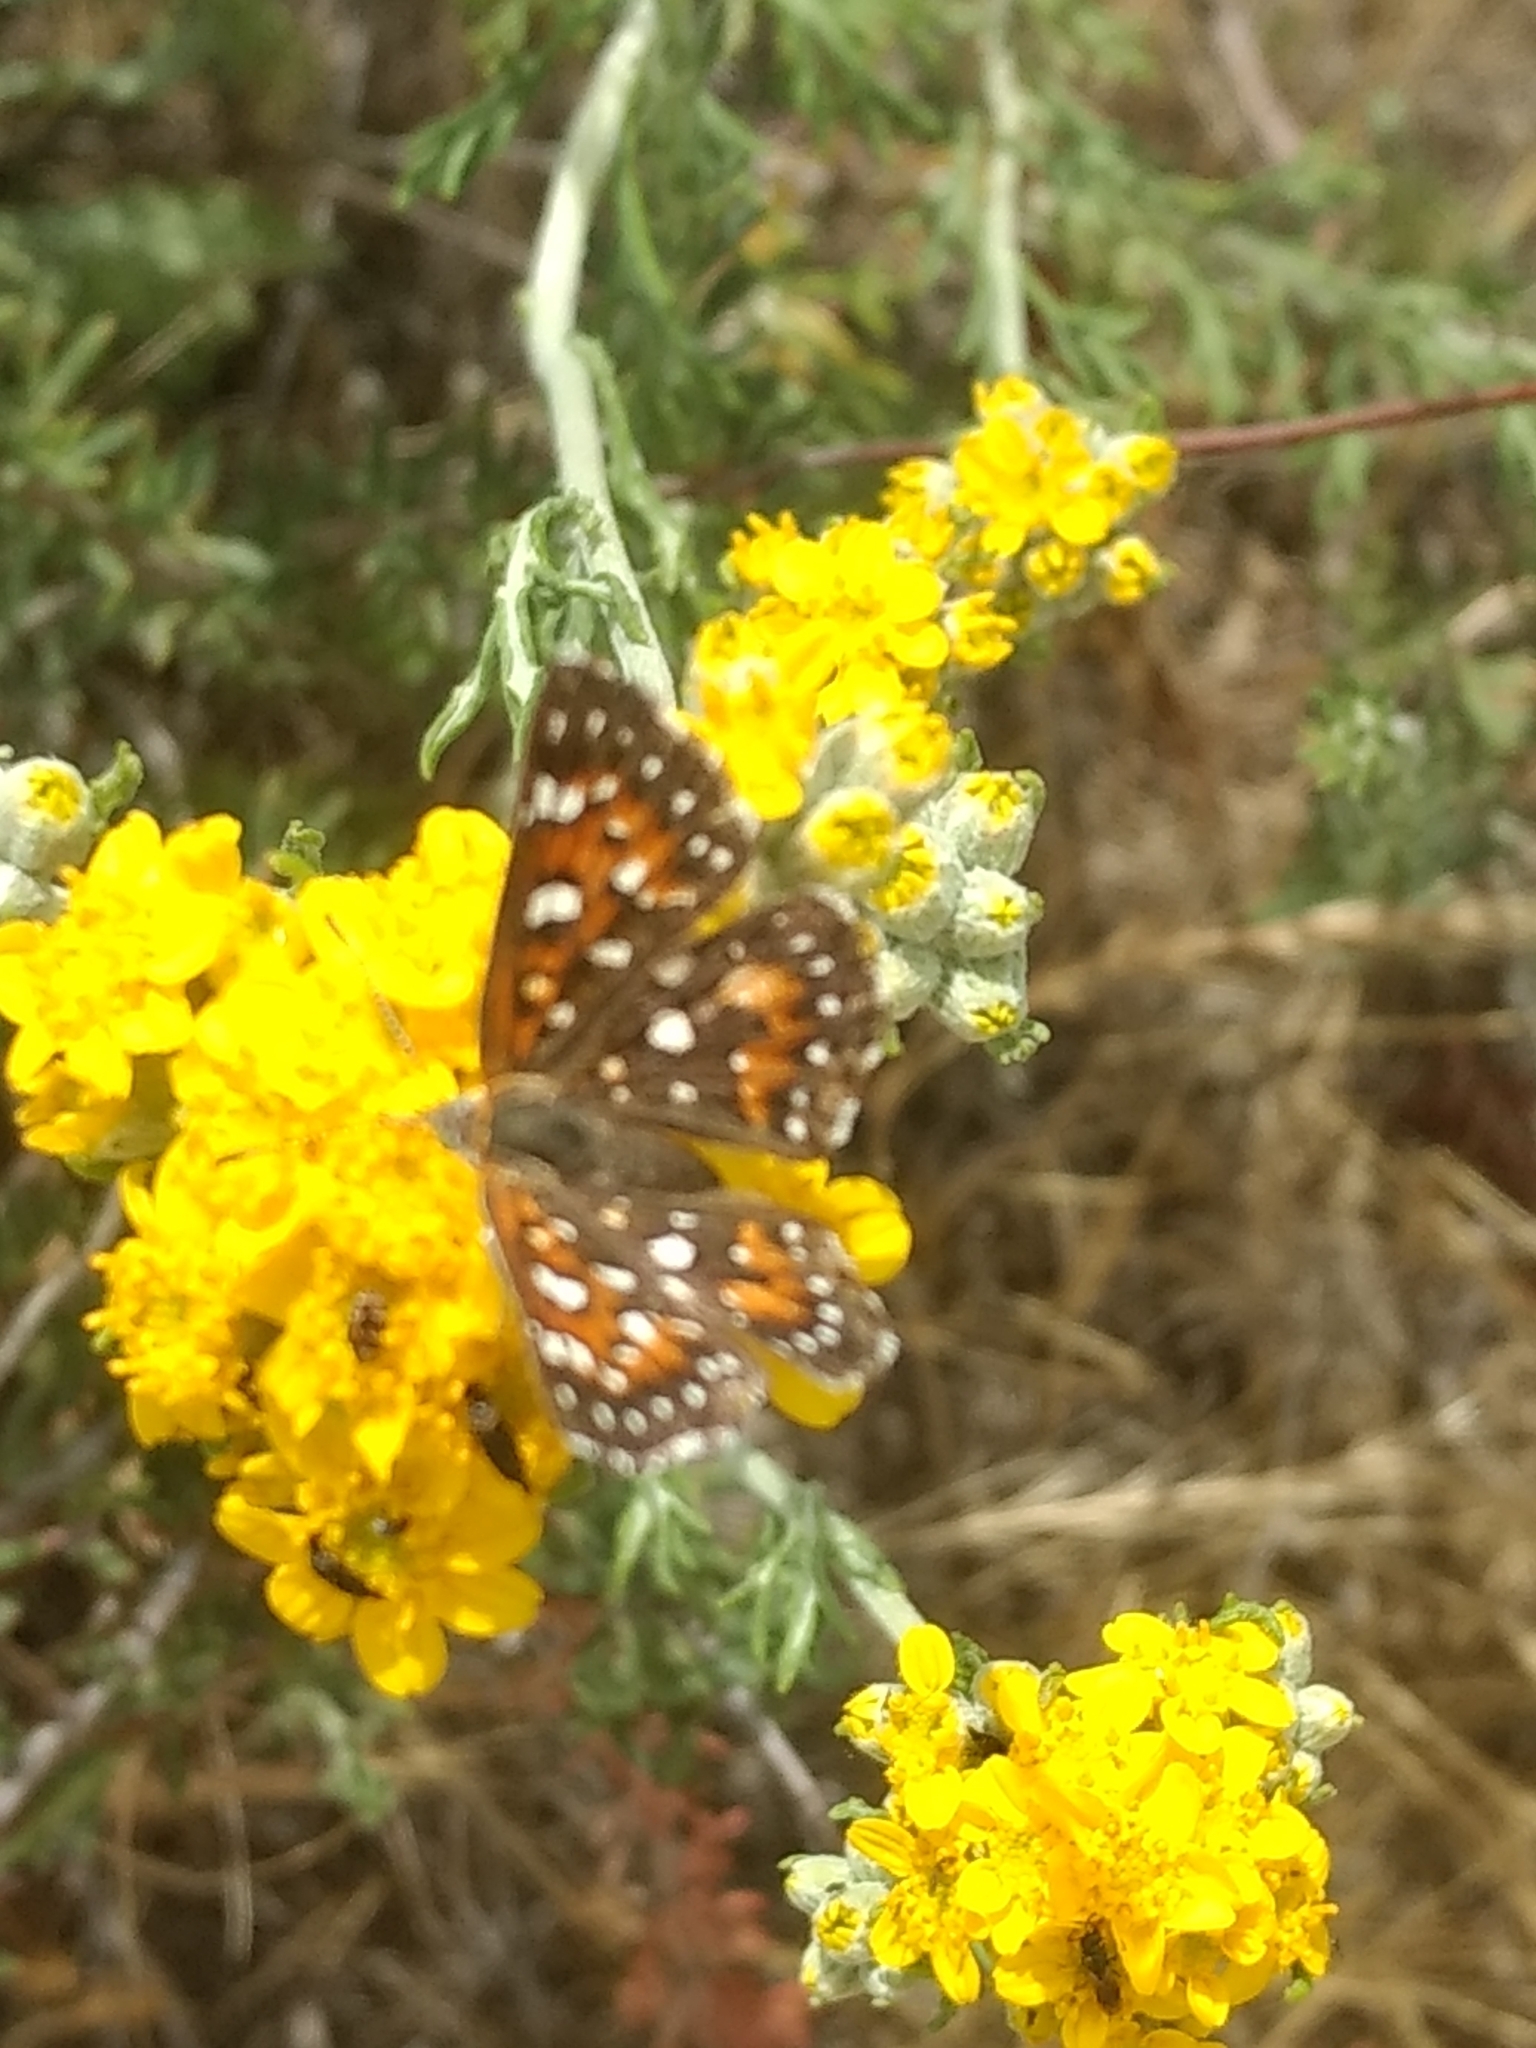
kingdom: Animalia
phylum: Arthropoda
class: Insecta
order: Lepidoptera
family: Riodinidae
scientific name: Riodinidae
